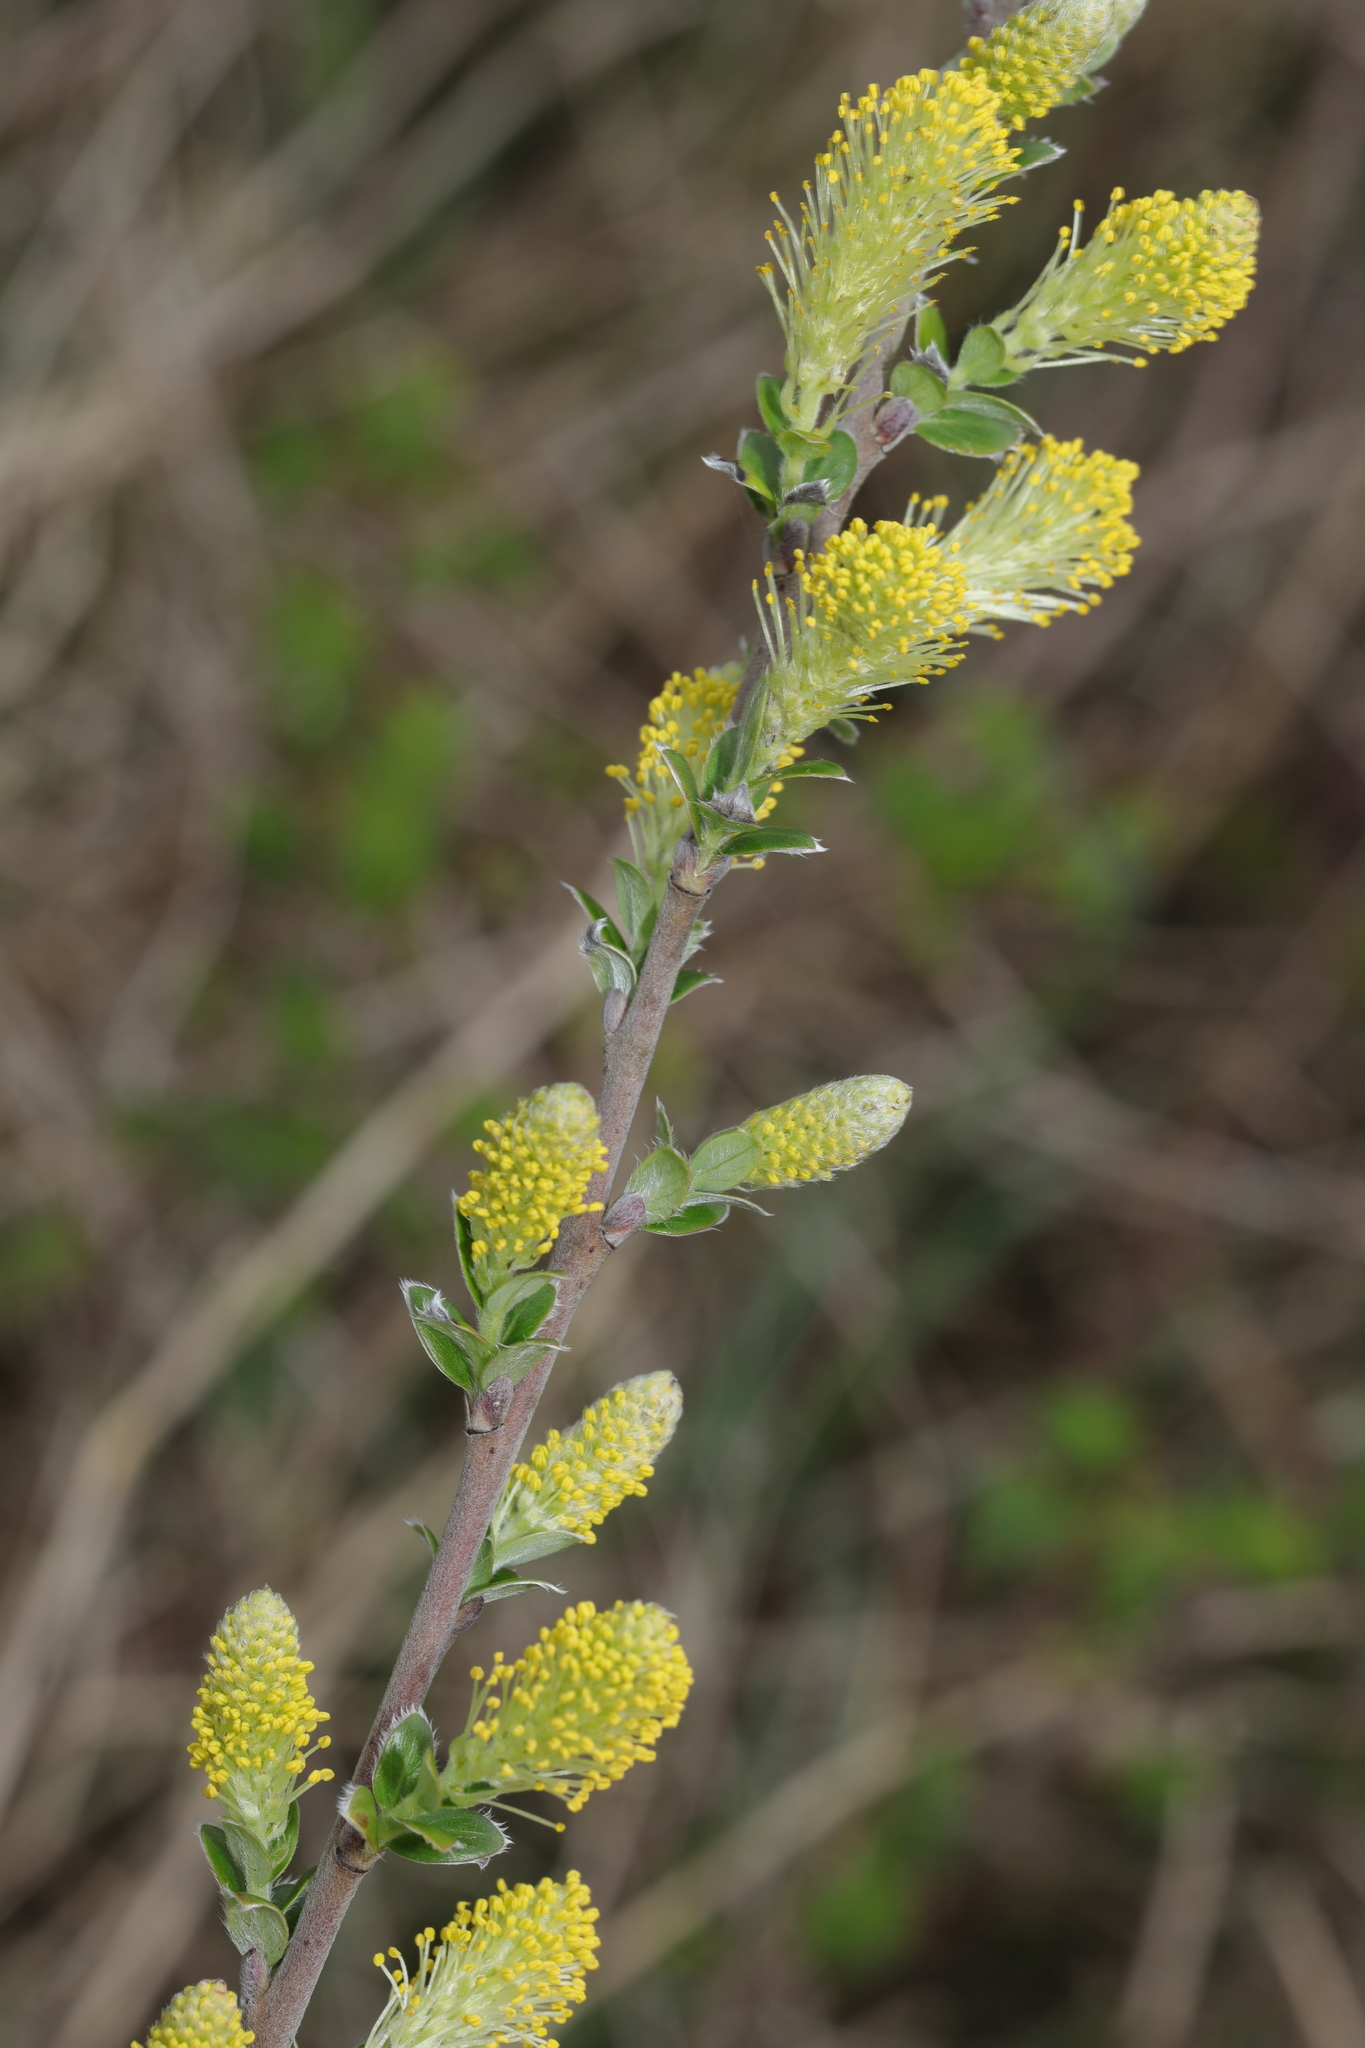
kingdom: Plantae
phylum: Tracheophyta
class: Magnoliopsida
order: Malpighiales
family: Salicaceae
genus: Salix
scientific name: Salix repens
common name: Creeping willow
